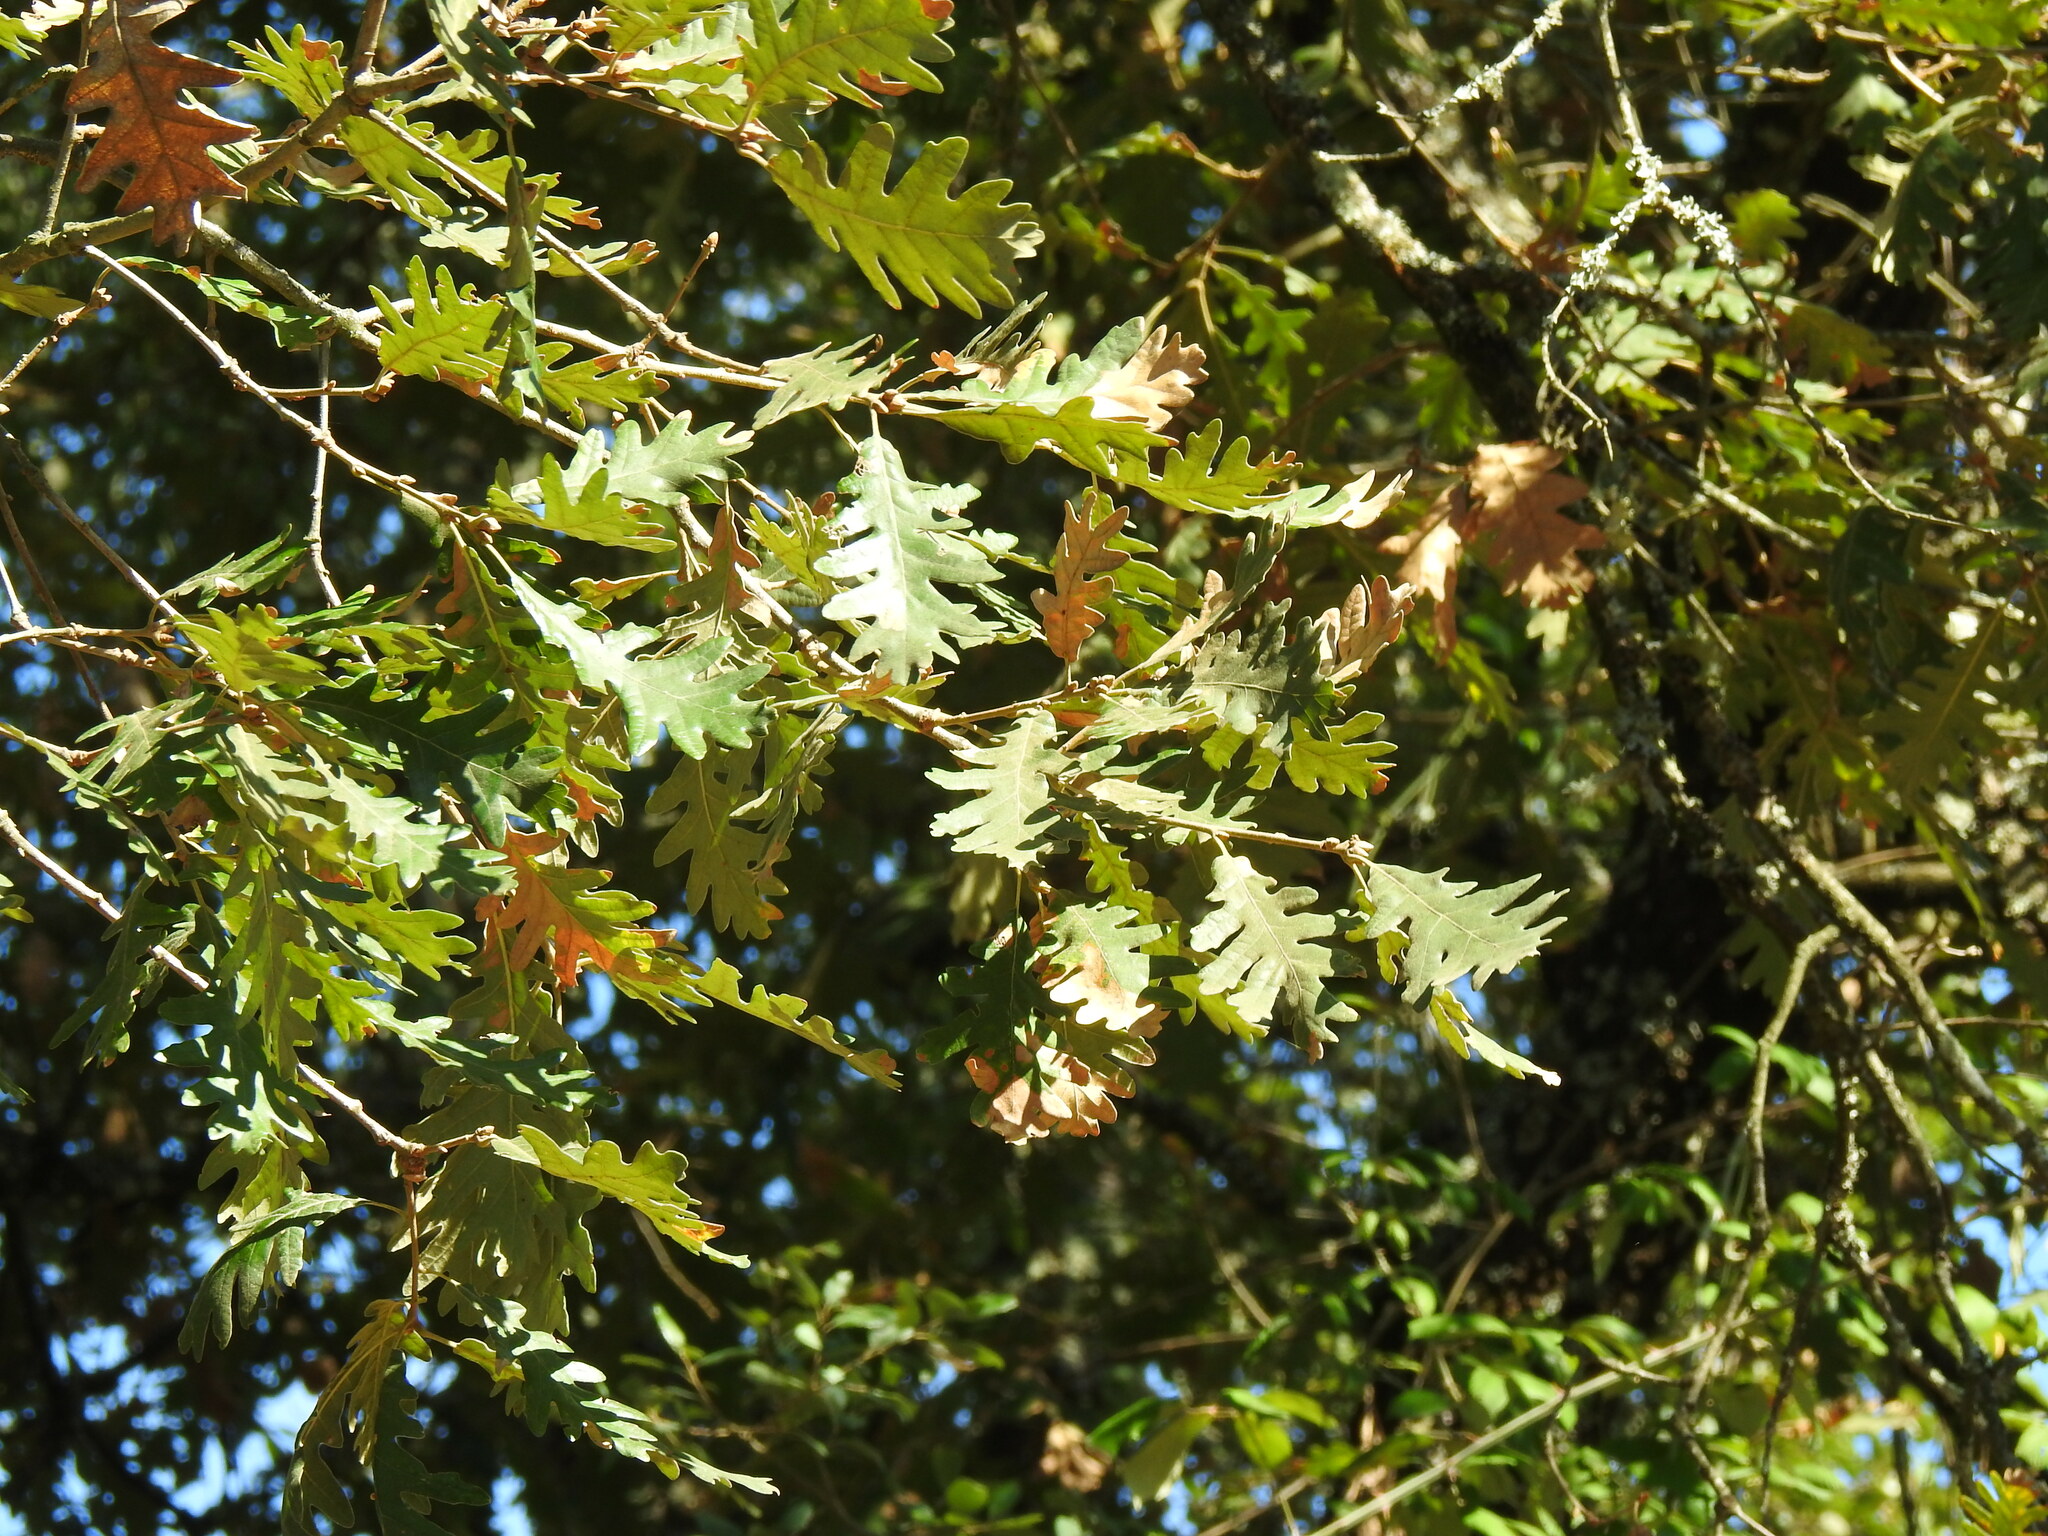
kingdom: Plantae
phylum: Tracheophyta
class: Magnoliopsida
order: Fagales
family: Fagaceae
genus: Quercus
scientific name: Quercus pyrenaica
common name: Pyrenean oak
